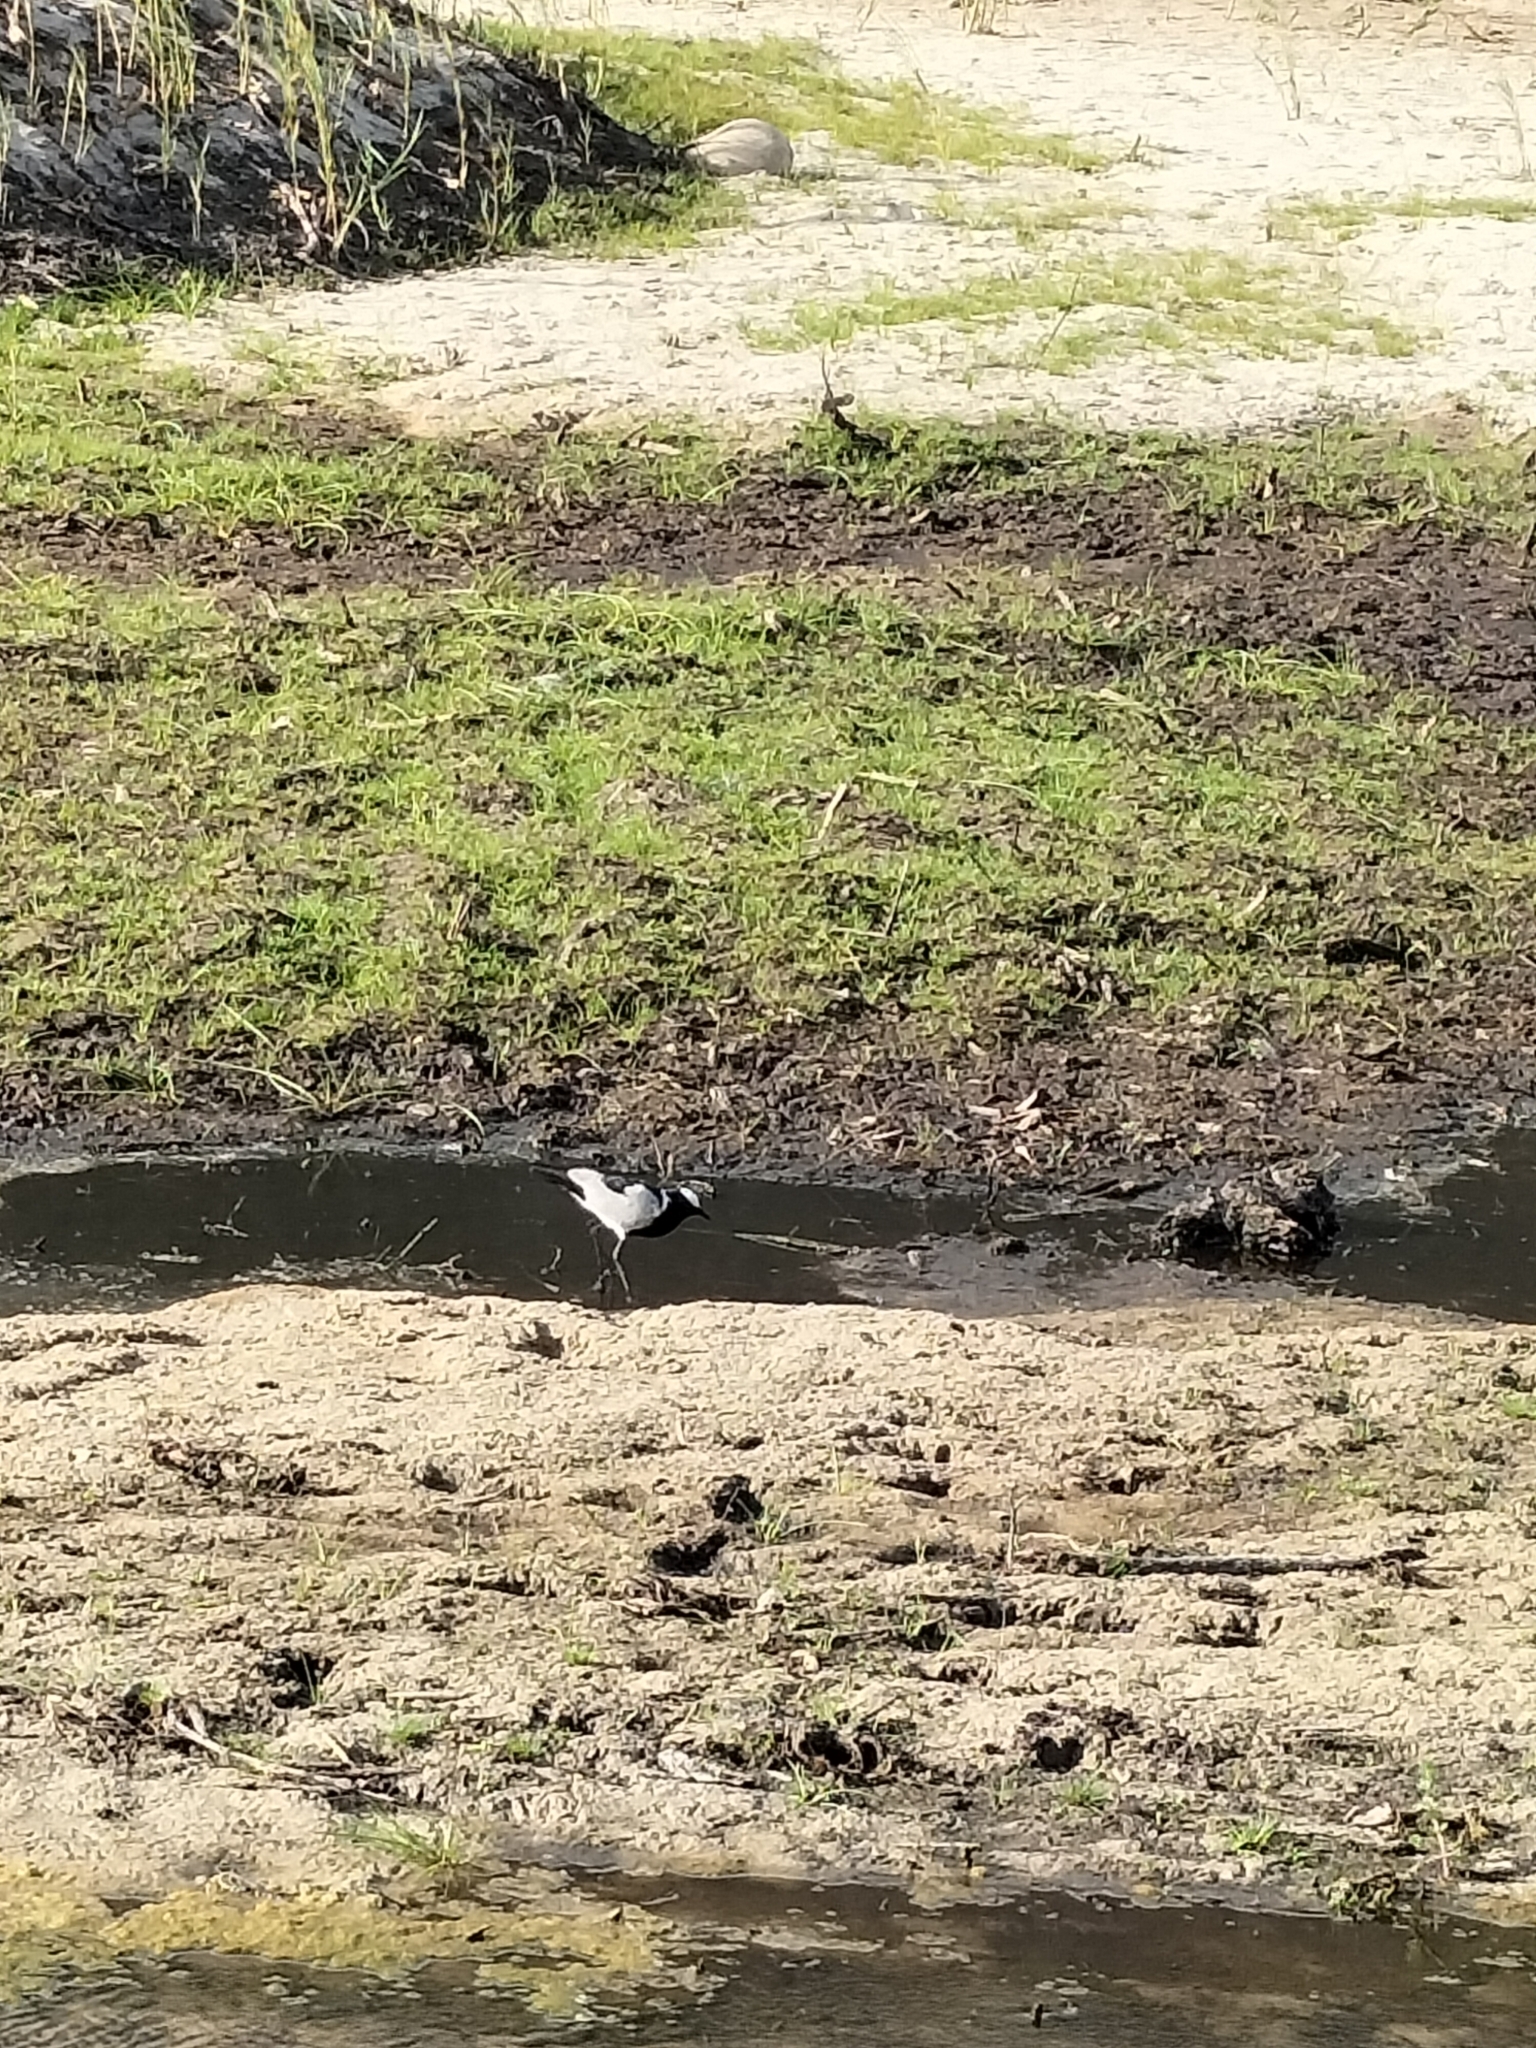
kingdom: Animalia
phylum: Chordata
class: Aves
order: Charadriiformes
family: Charadriidae
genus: Vanellus
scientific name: Vanellus armatus
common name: Blacksmith lapwing
